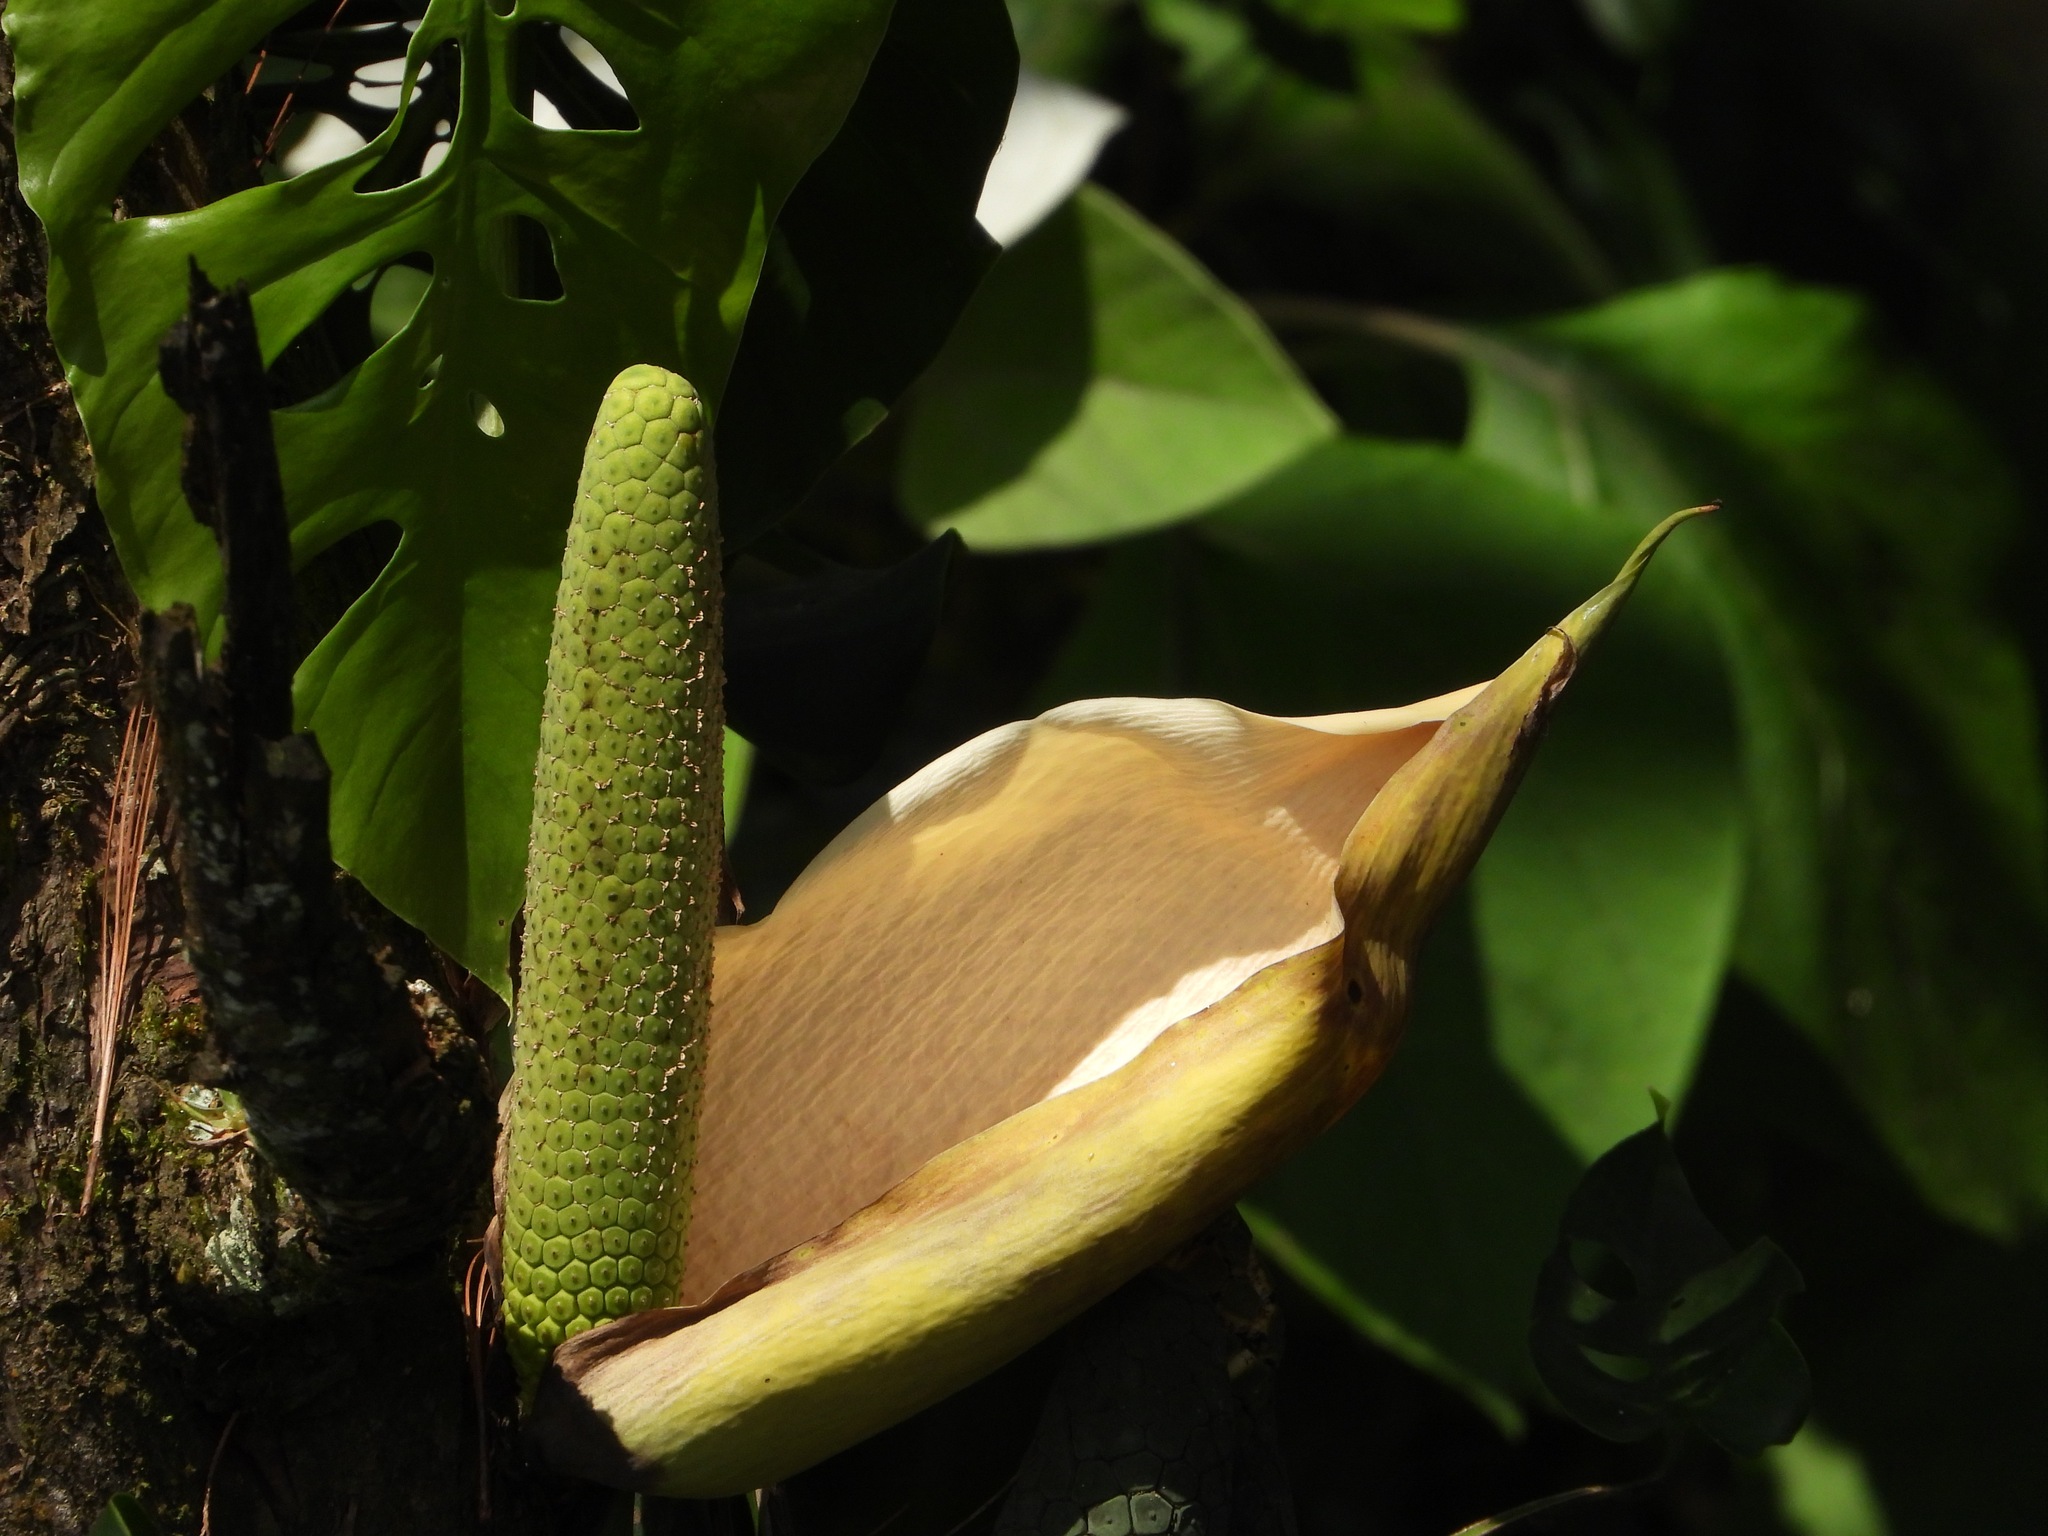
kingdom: Plantae
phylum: Tracheophyta
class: Liliopsida
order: Alismatales
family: Araceae
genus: Monstera
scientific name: Monstera siltepecana
